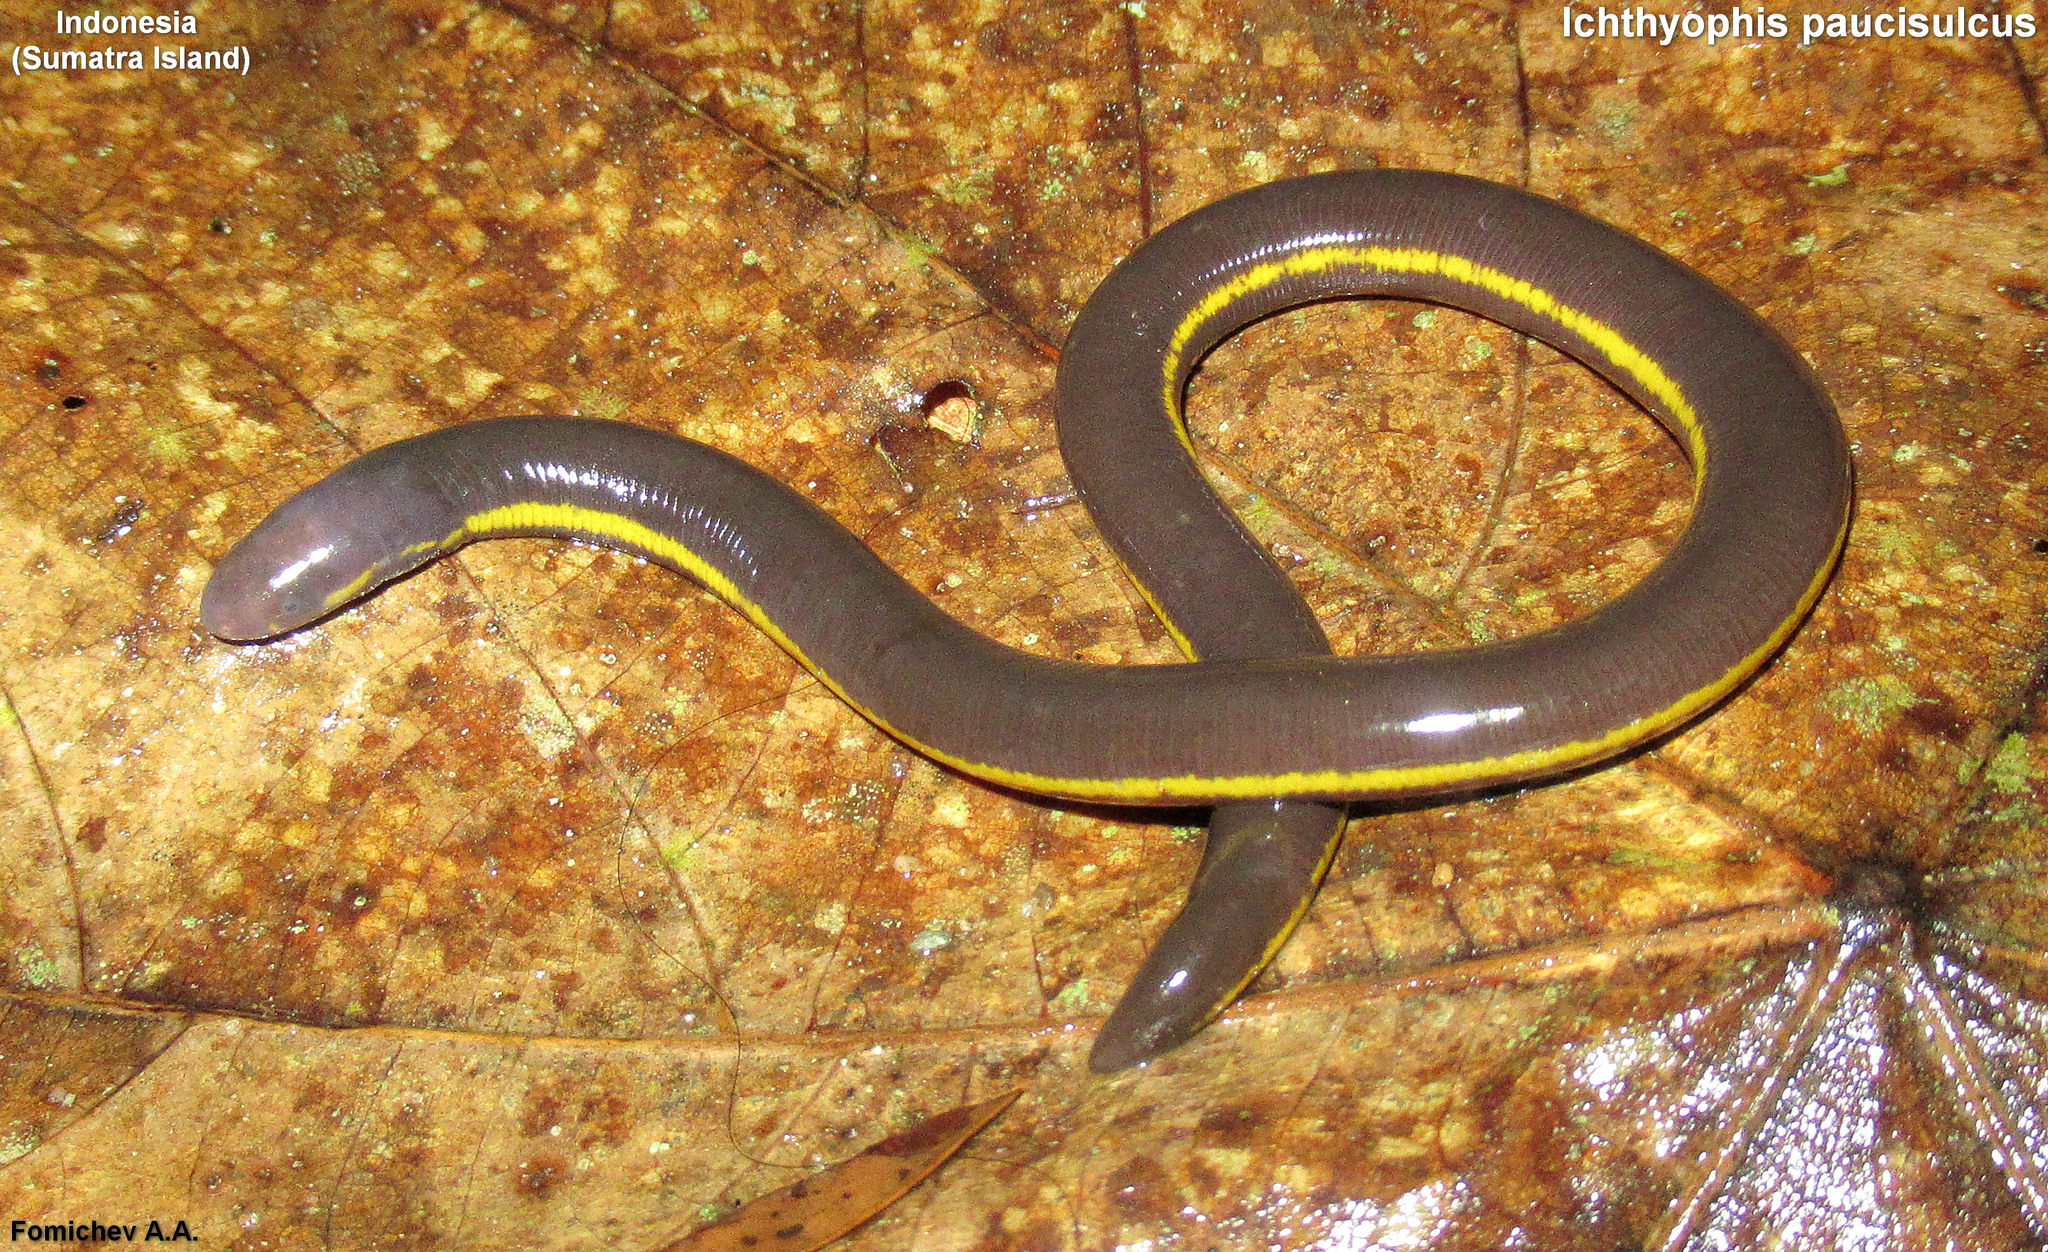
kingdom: Animalia
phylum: Chordata
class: Amphibia
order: Gymnophiona
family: Ichthyophiidae
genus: Ichthyophis
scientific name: Ichthyophis paucisulcus
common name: Siantar caecilian
